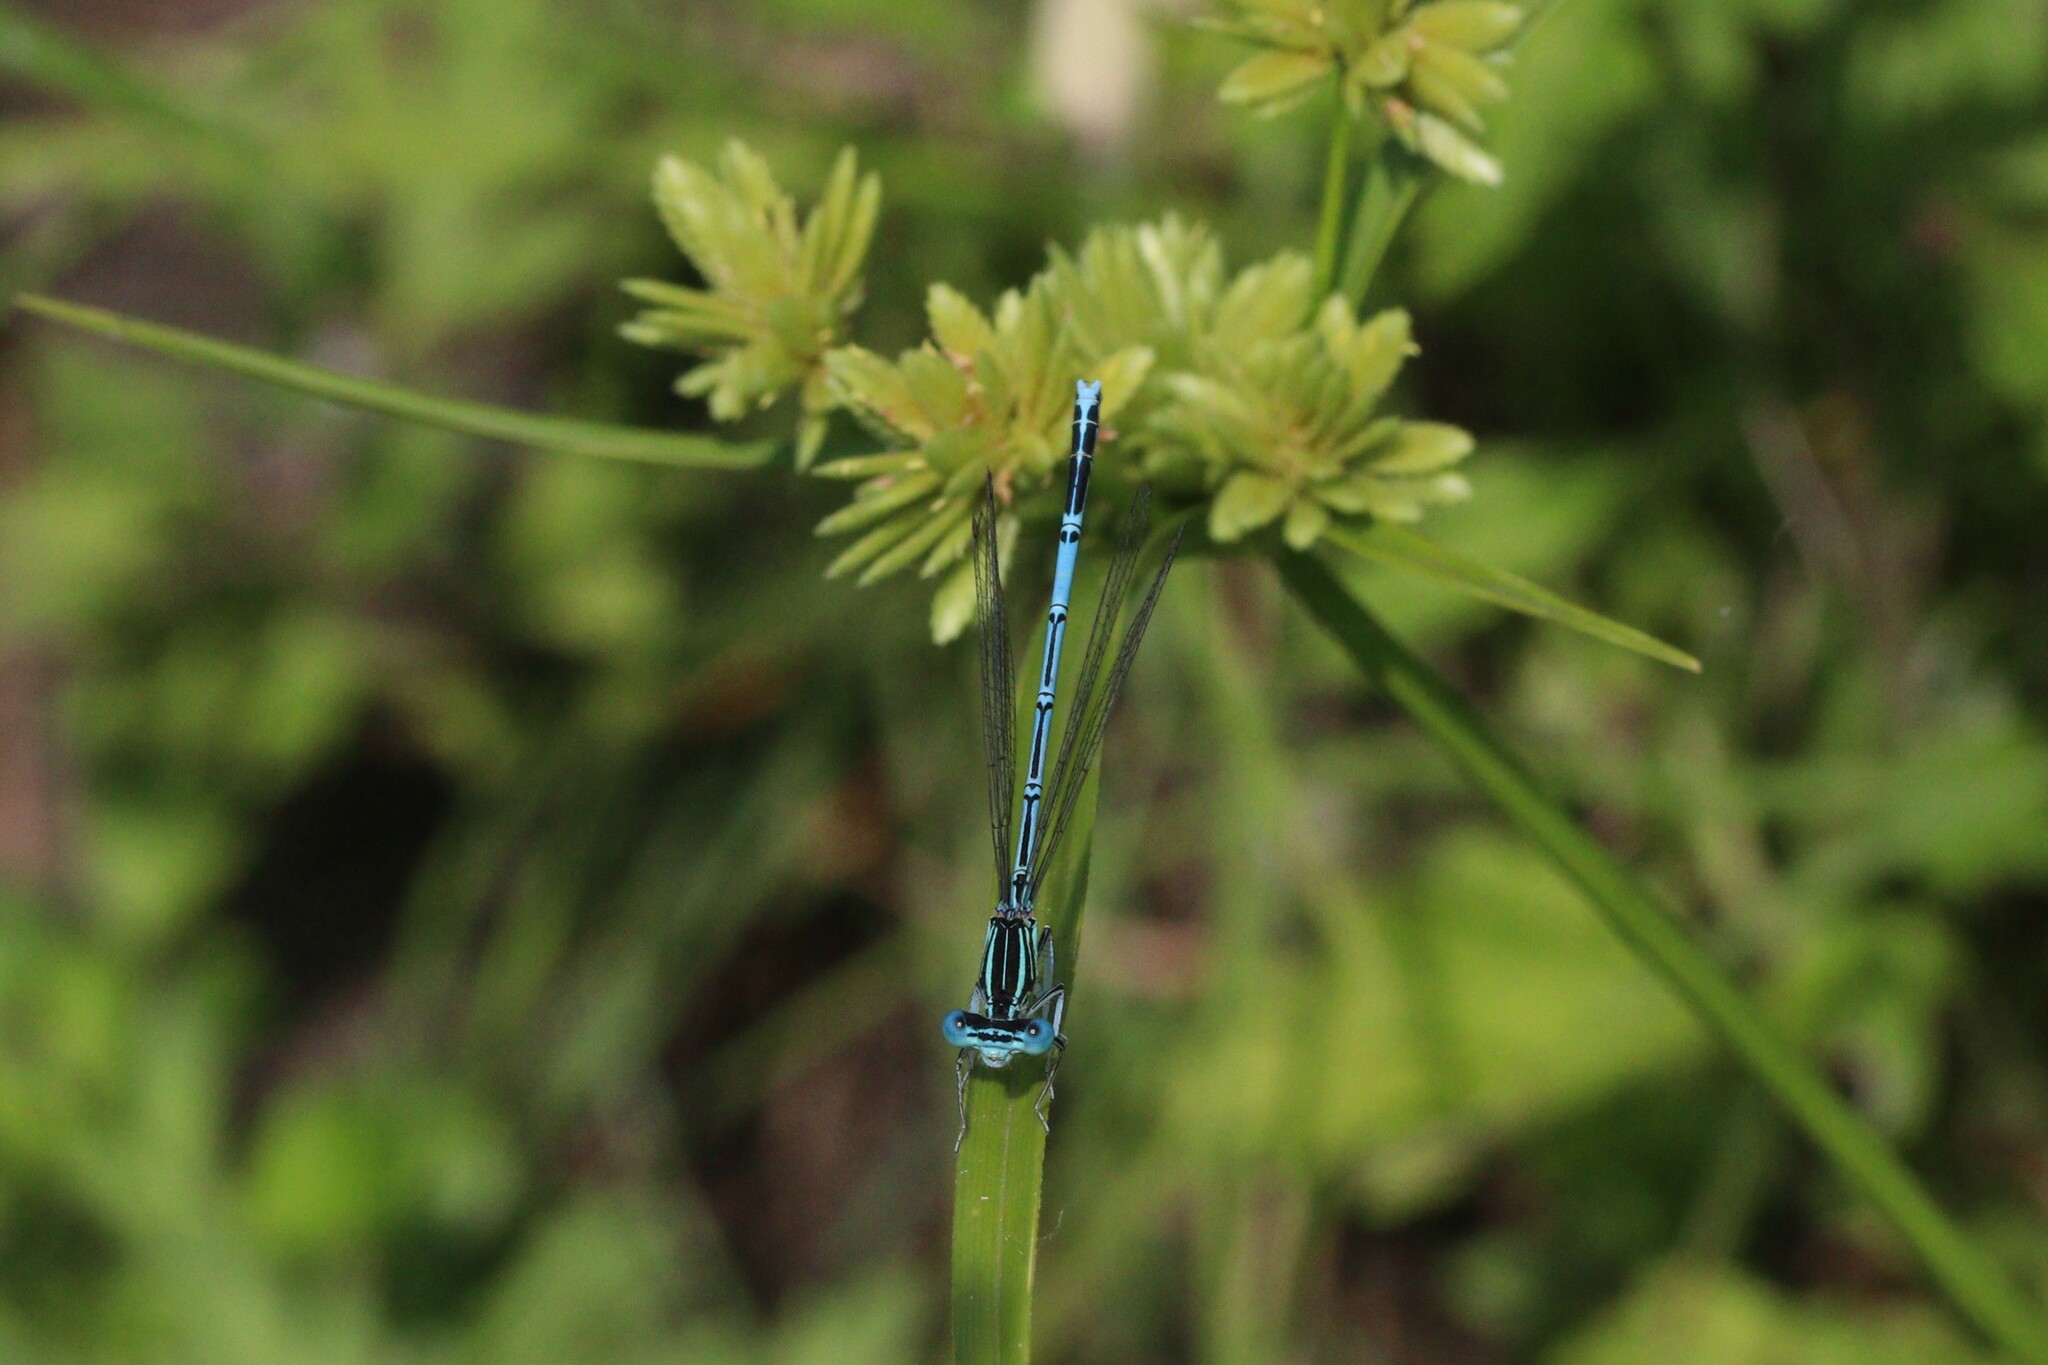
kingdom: Animalia
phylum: Arthropoda
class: Insecta
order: Odonata
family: Platycnemididae
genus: Platycnemis
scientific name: Platycnemis pennipes
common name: White-legged damselfly
